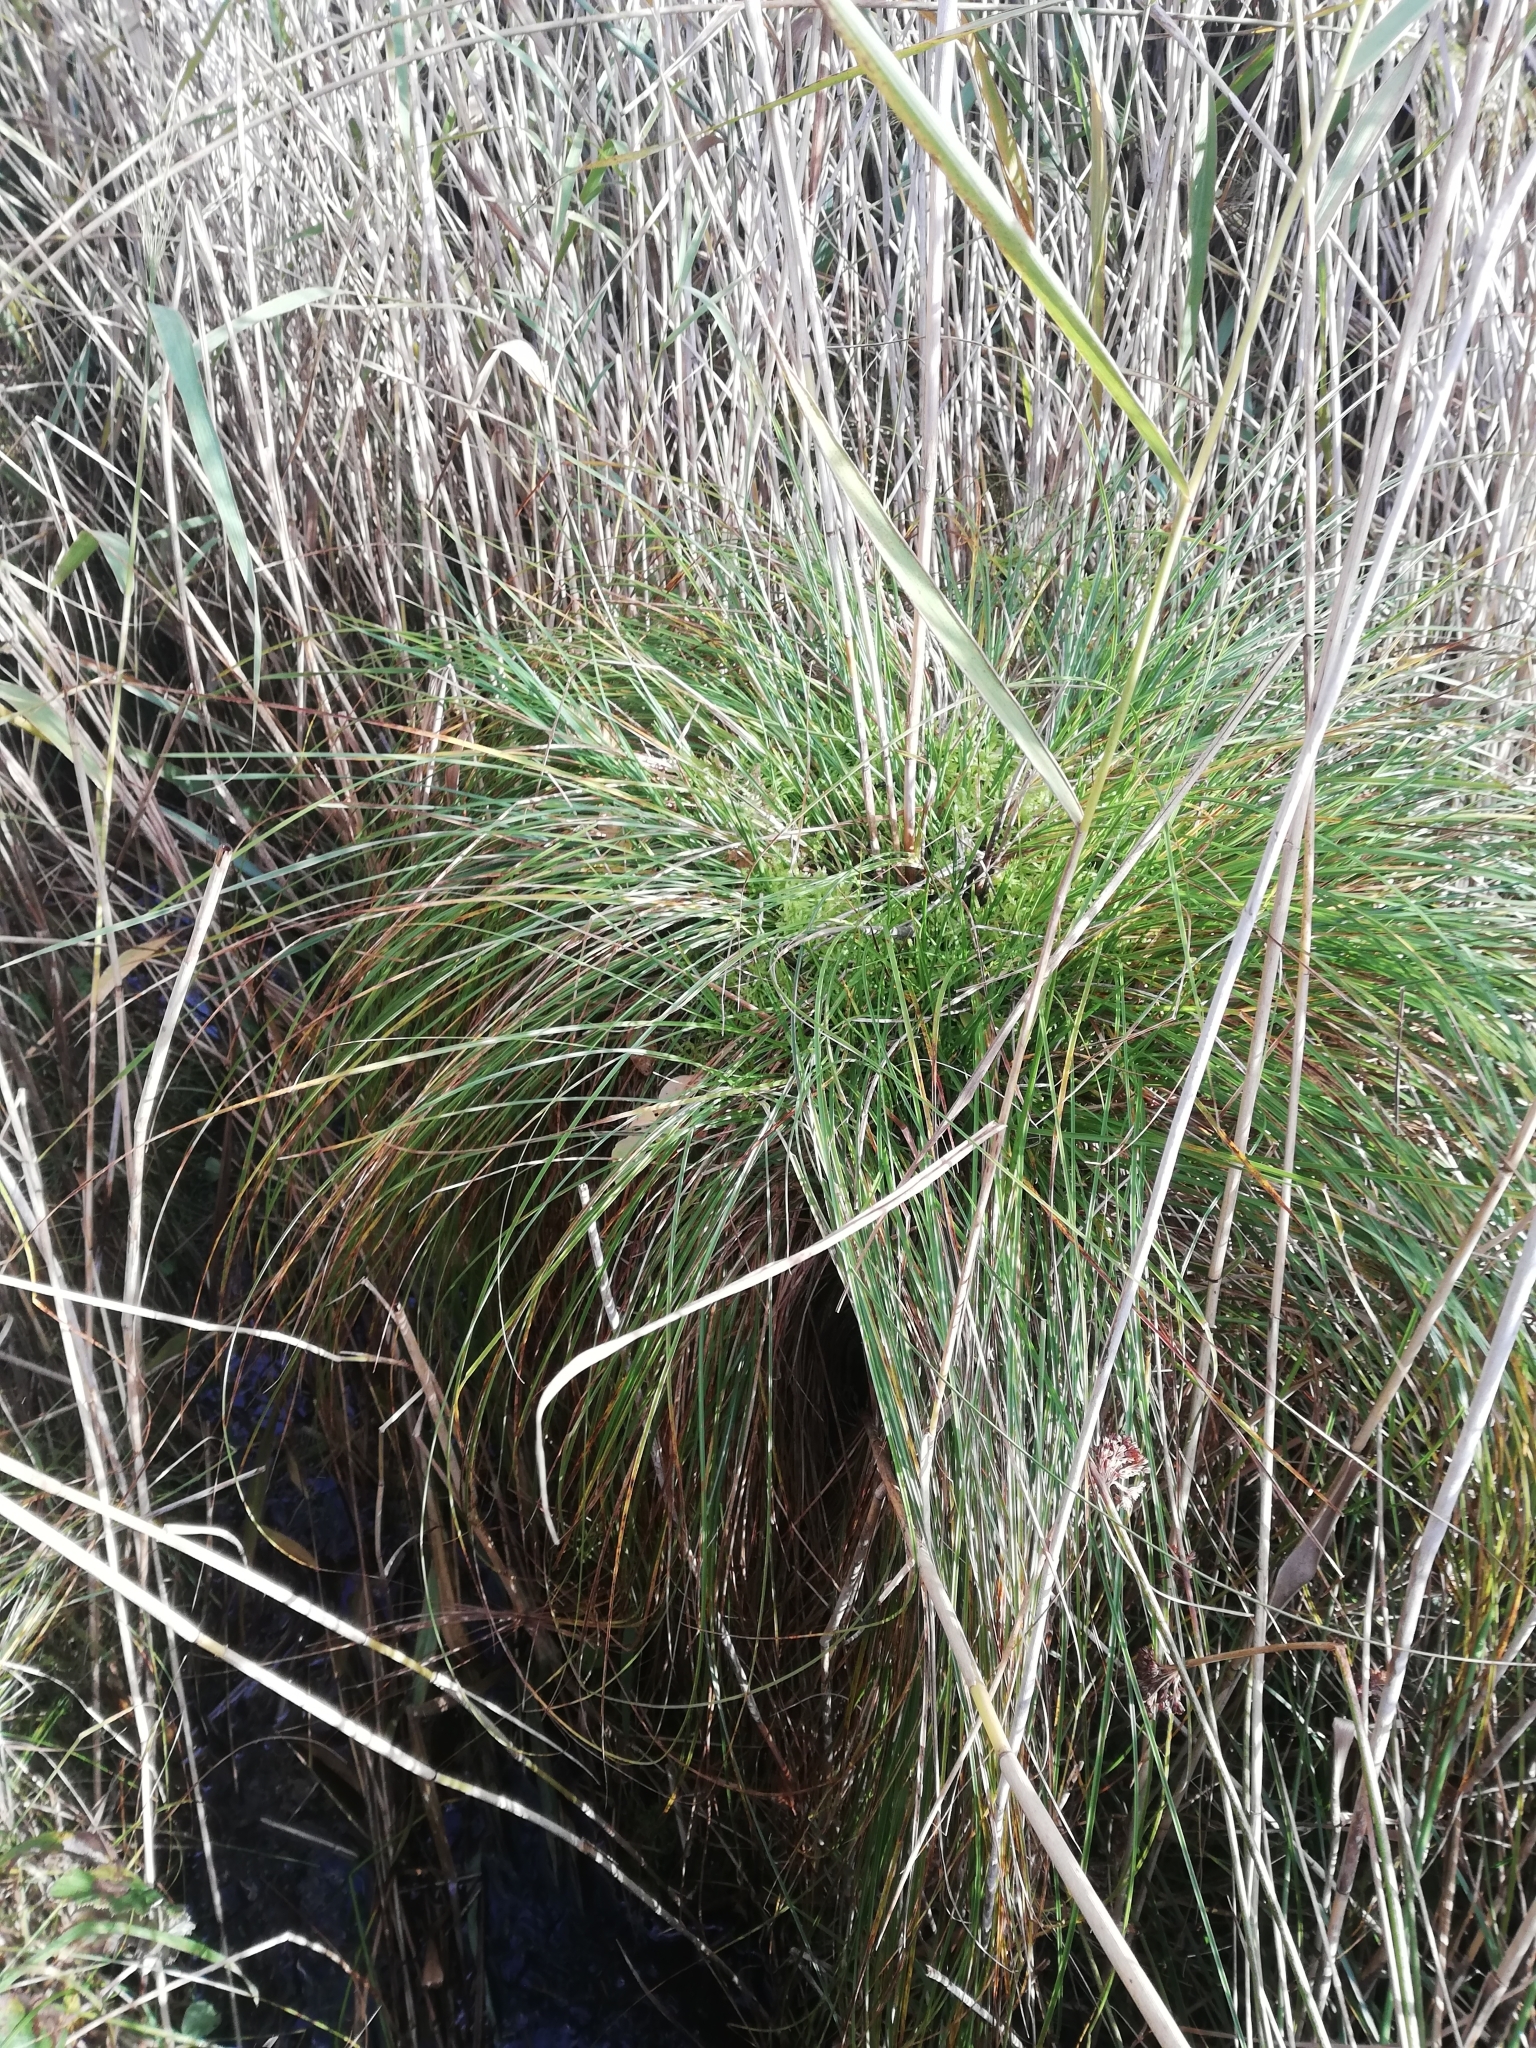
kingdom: Plantae
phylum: Tracheophyta
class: Liliopsida
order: Poales
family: Cyperaceae
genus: Carex
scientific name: Carex appropinquata
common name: Fibrous tussock-sedge
